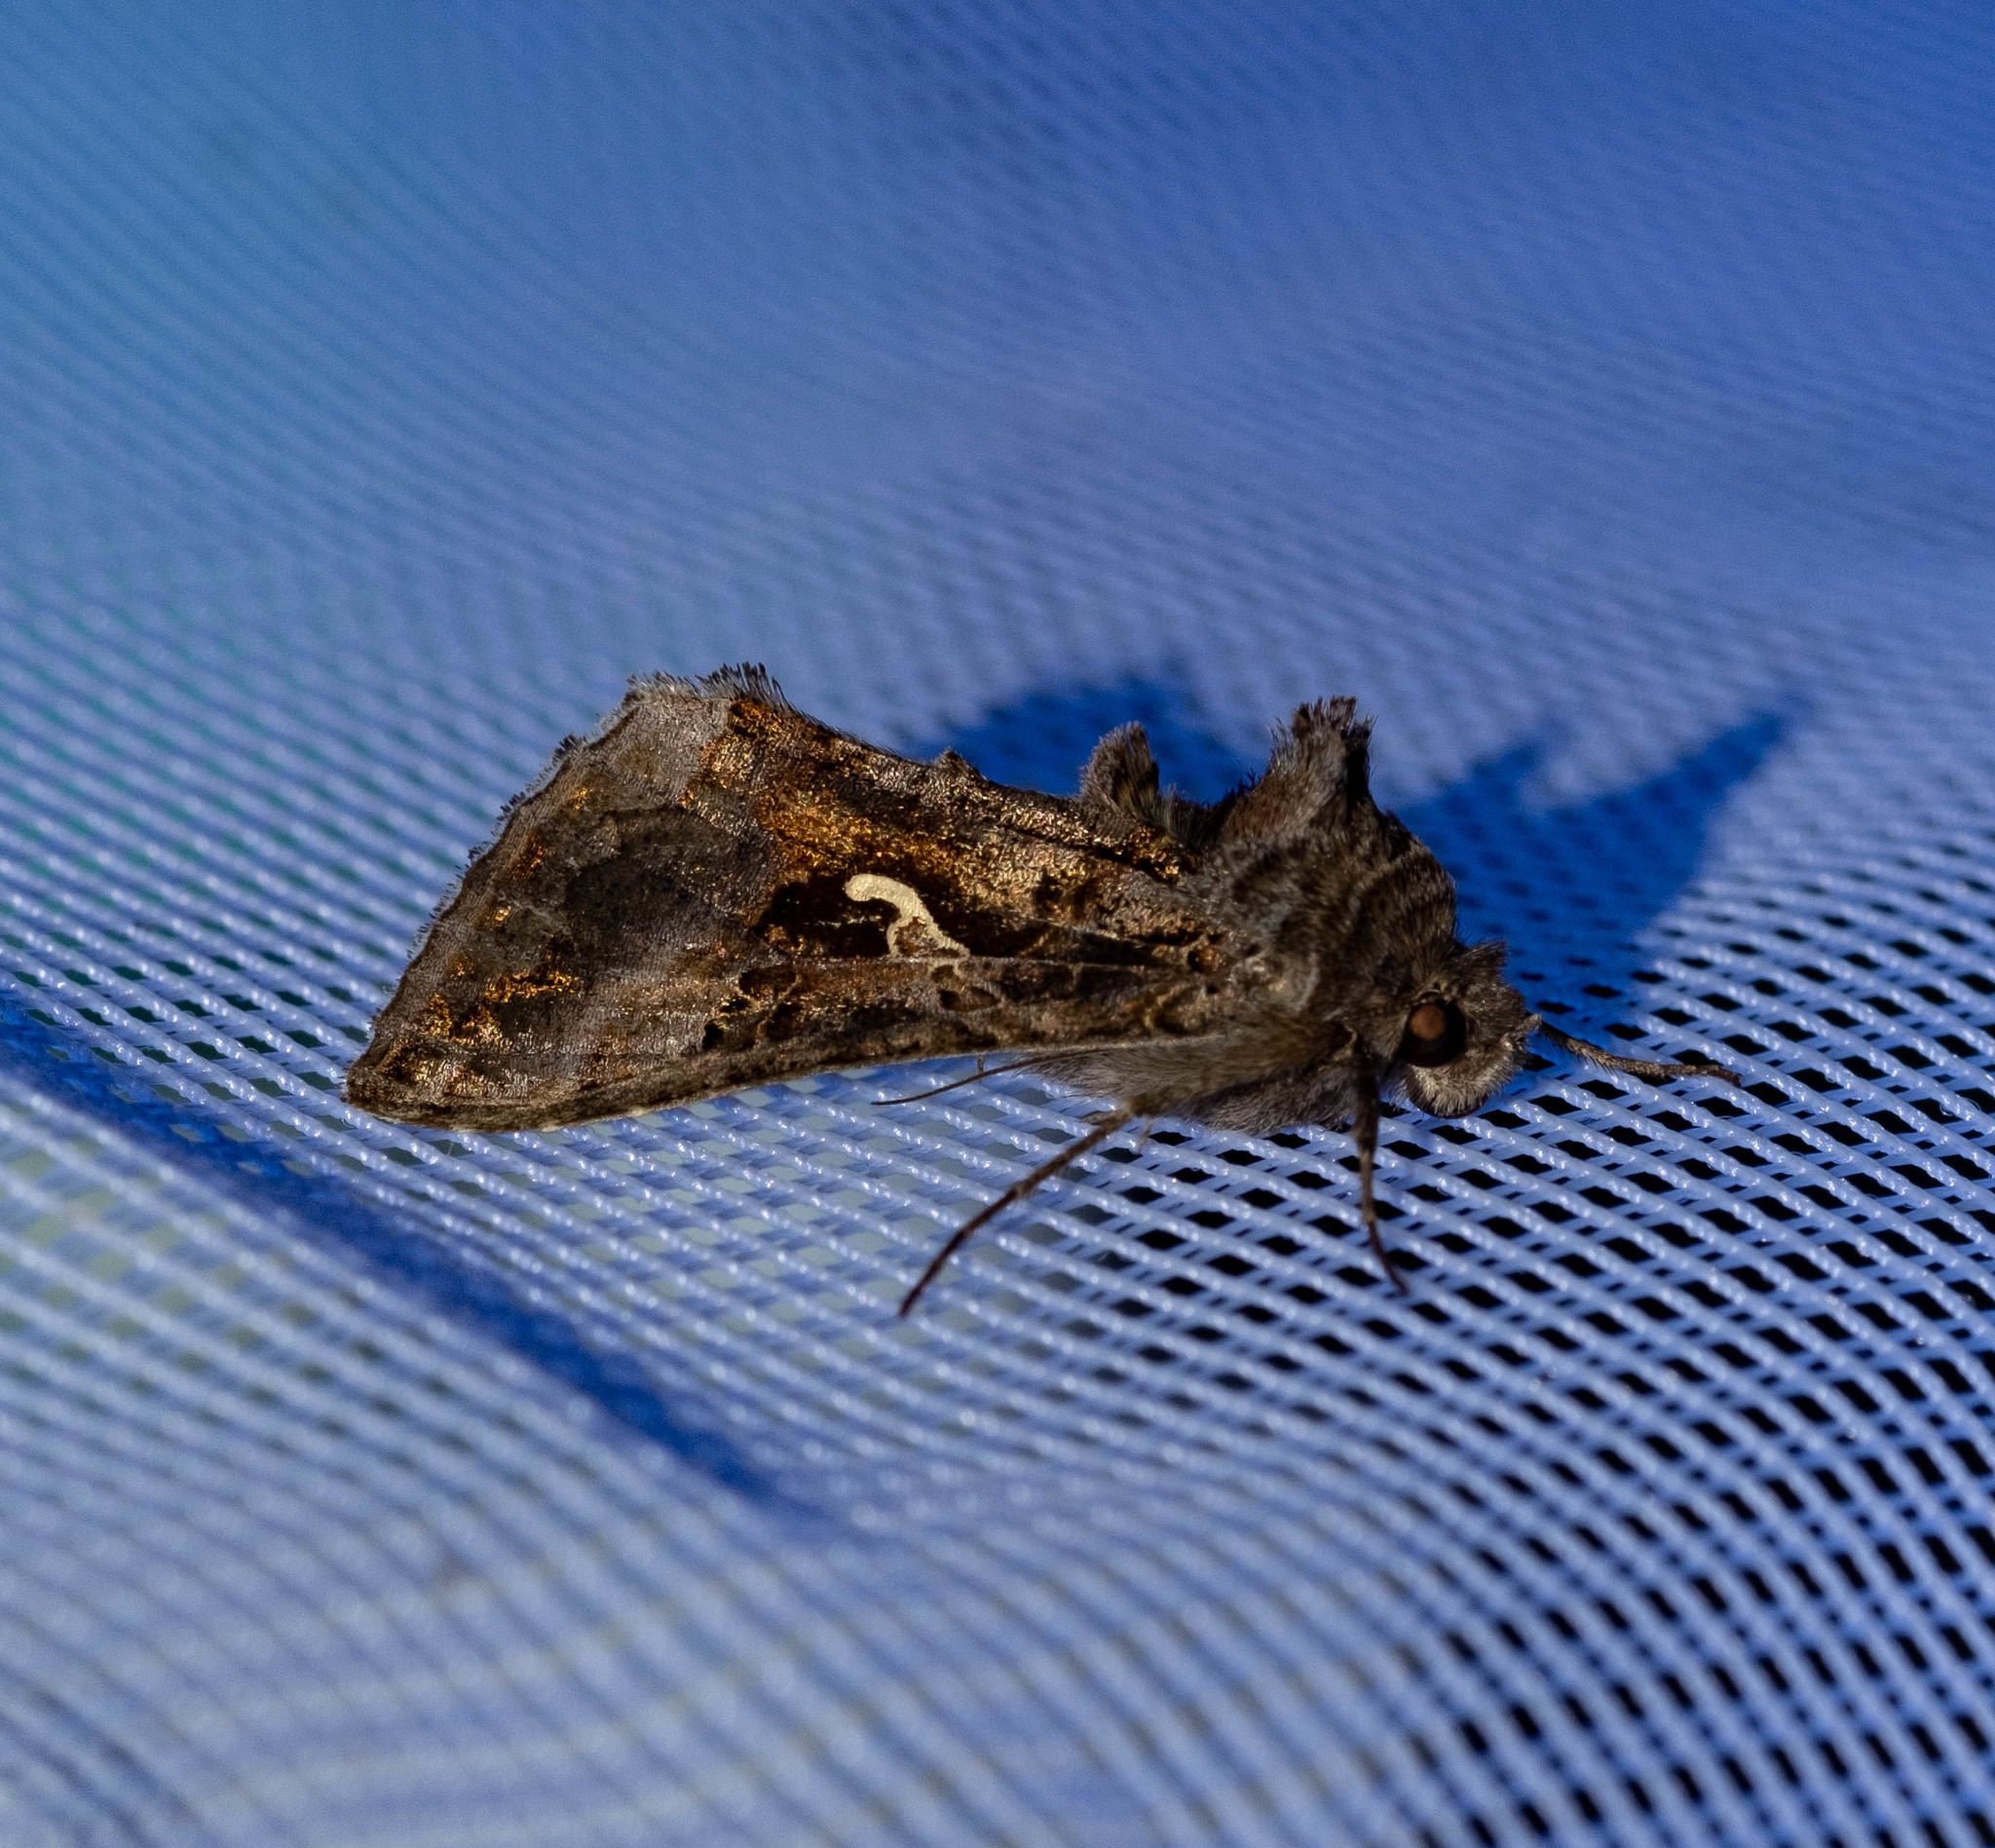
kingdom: Animalia
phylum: Arthropoda
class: Insecta
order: Lepidoptera
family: Noctuidae
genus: Autographa
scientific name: Autographa gamma
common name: Silver y
